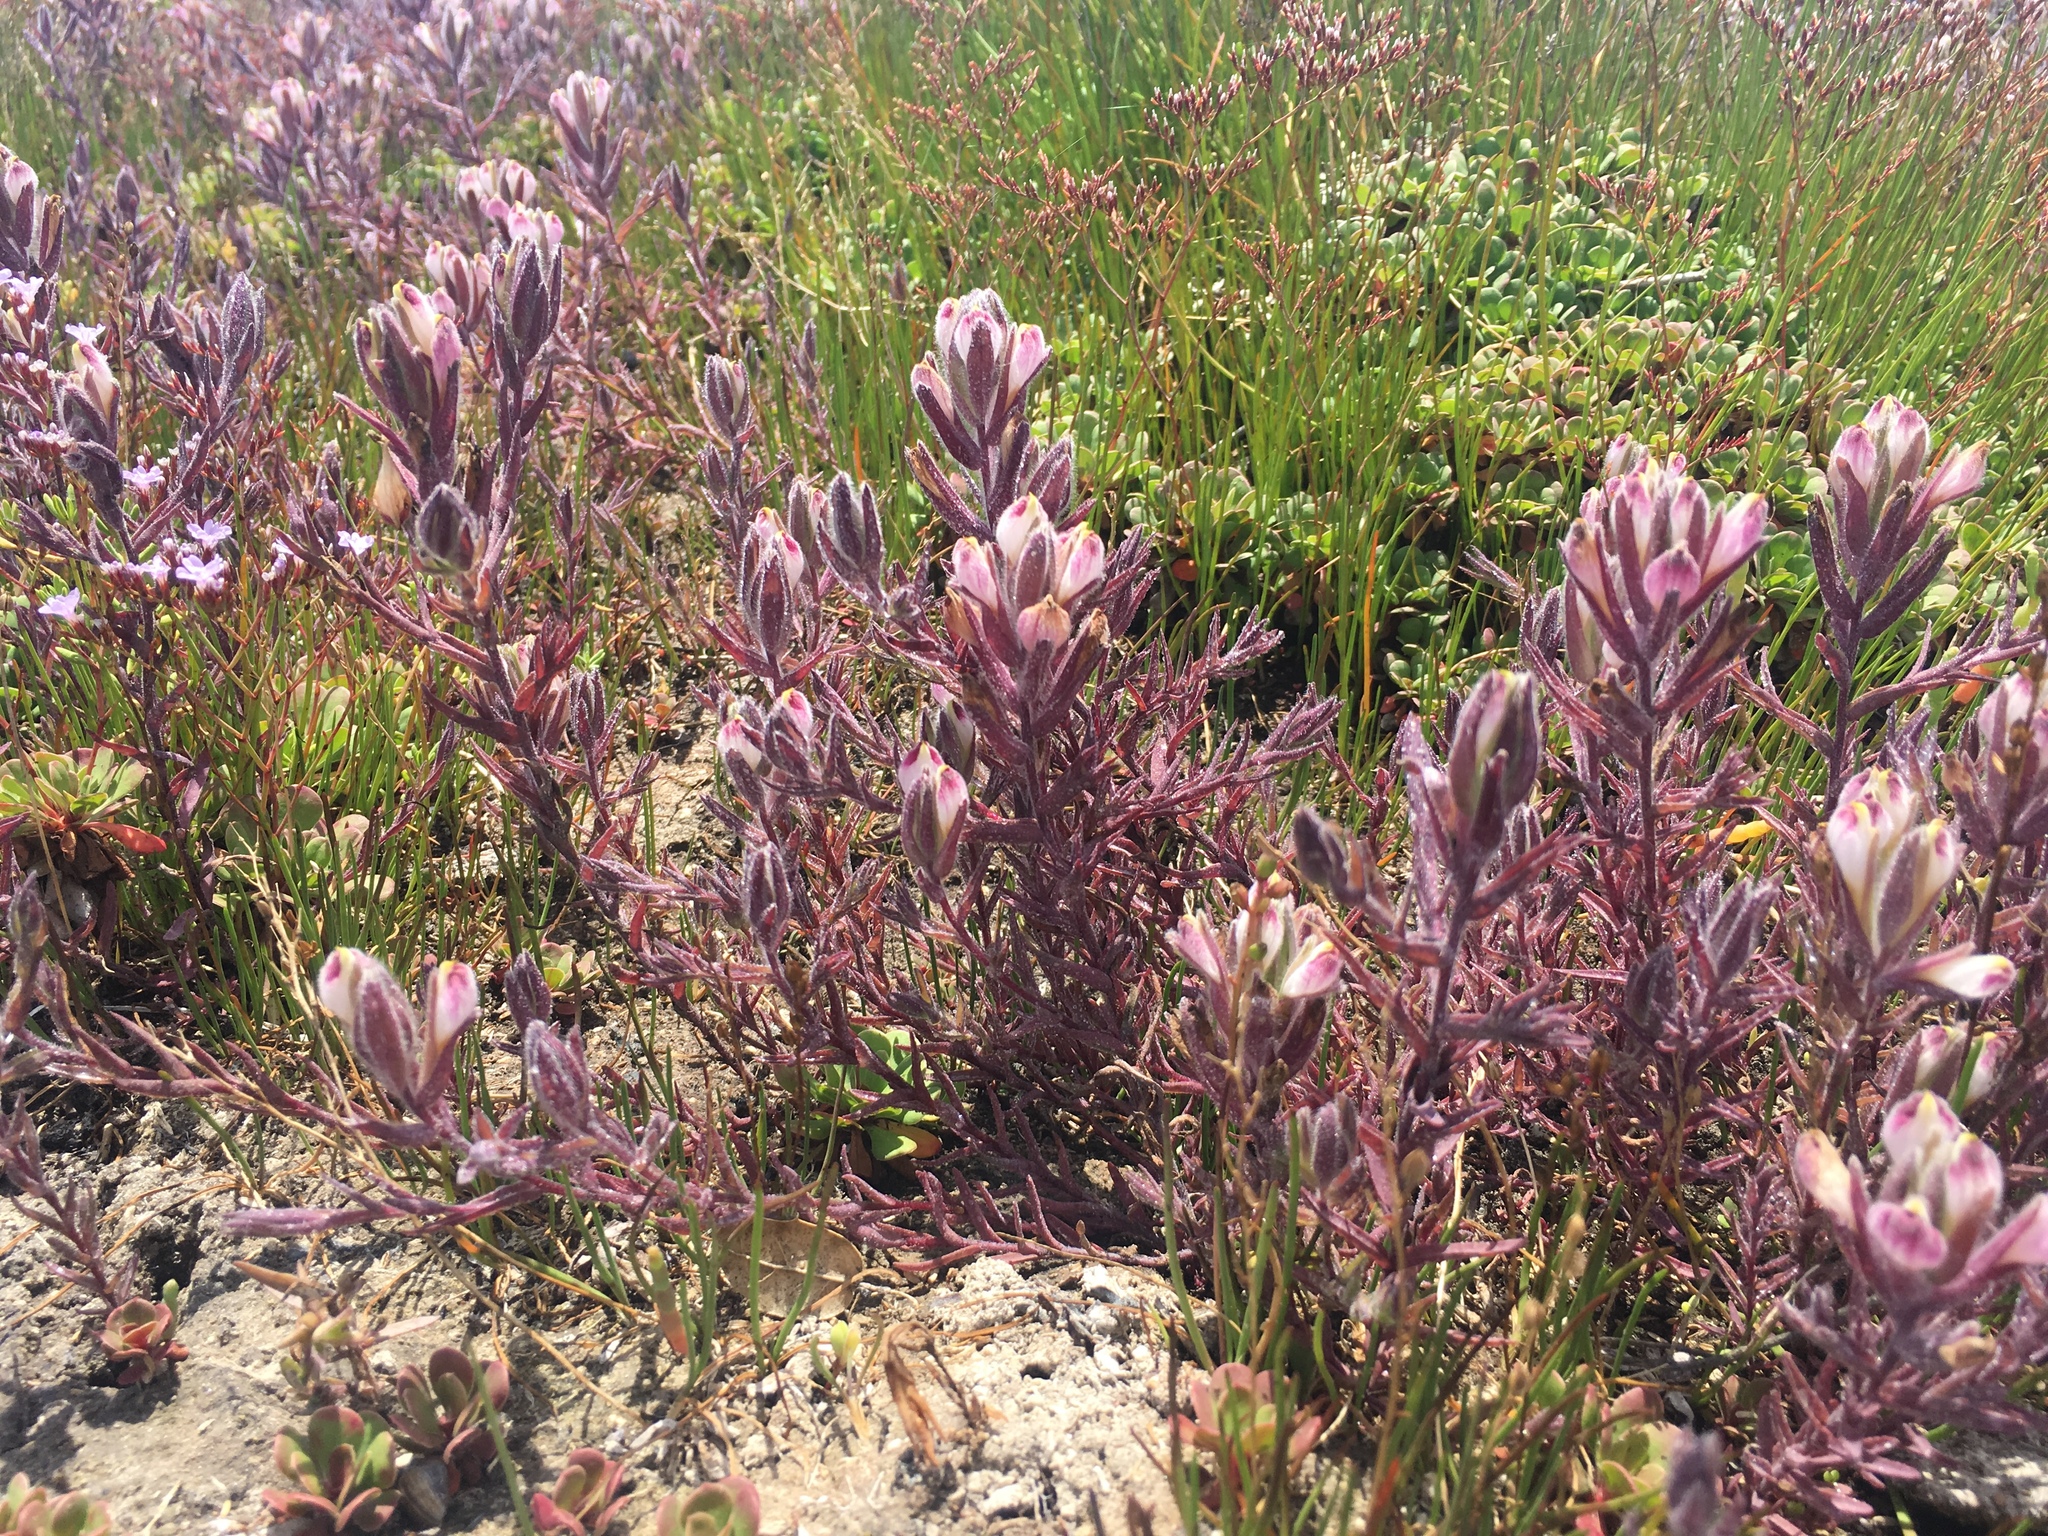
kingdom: Plantae
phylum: Tracheophyta
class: Magnoliopsida
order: Lamiales
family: Orobanchaceae
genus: Chloropyron
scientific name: Chloropyron maritimum
